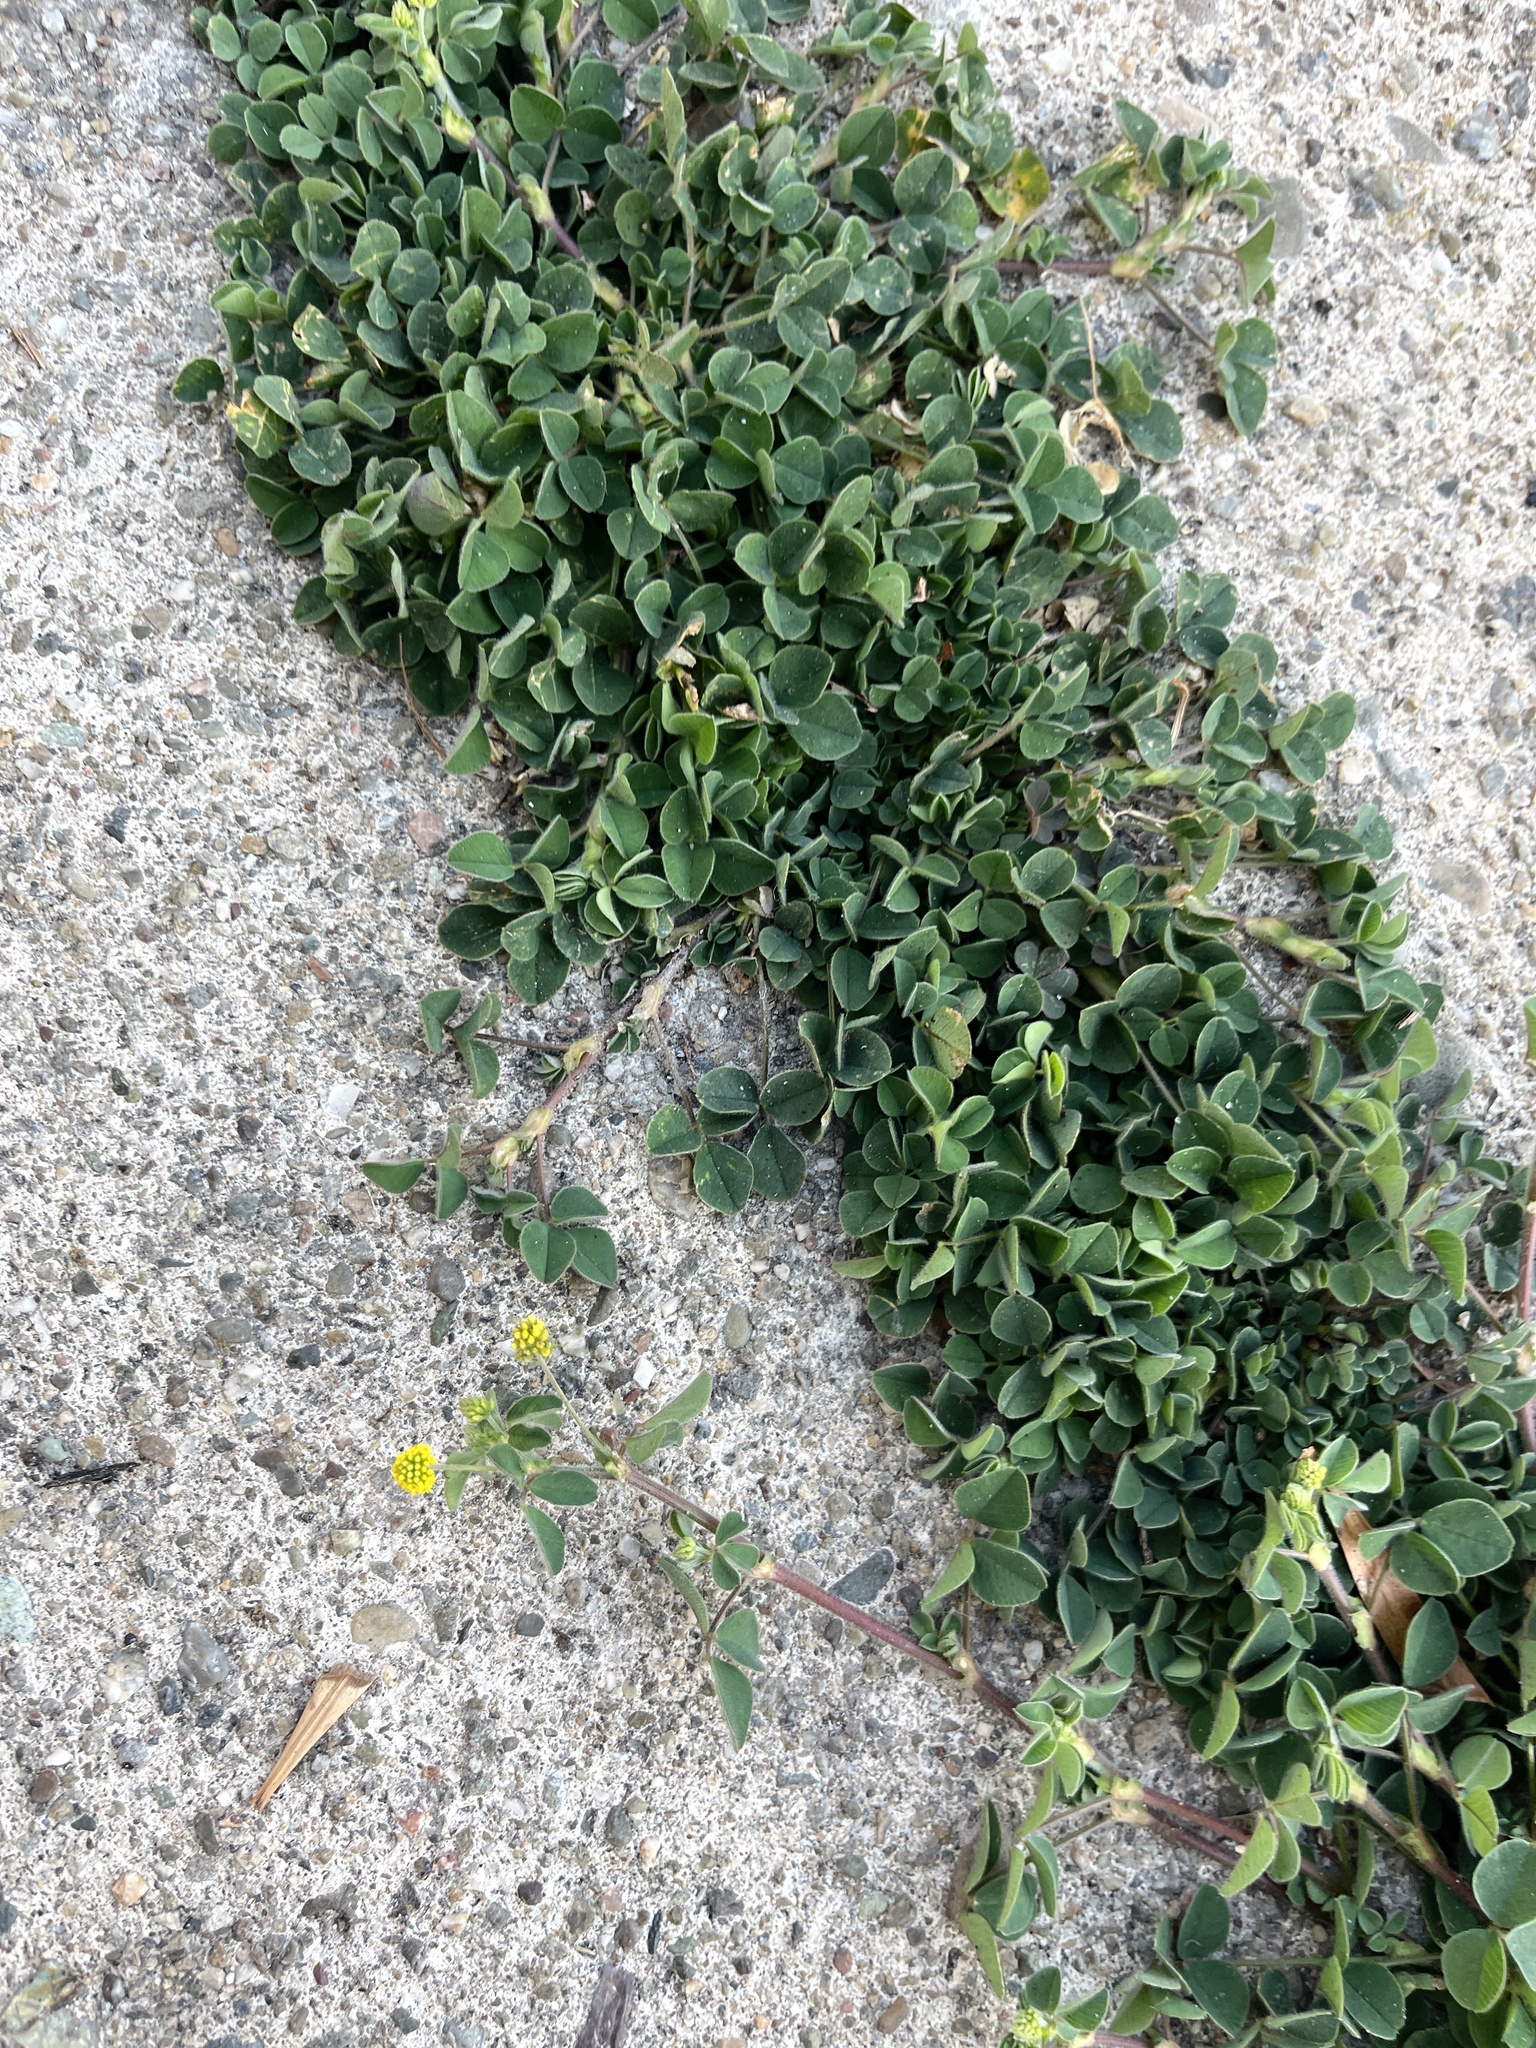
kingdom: Plantae
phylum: Tracheophyta
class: Magnoliopsida
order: Fabales
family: Fabaceae
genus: Medicago
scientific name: Medicago lupulina
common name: Black medick
